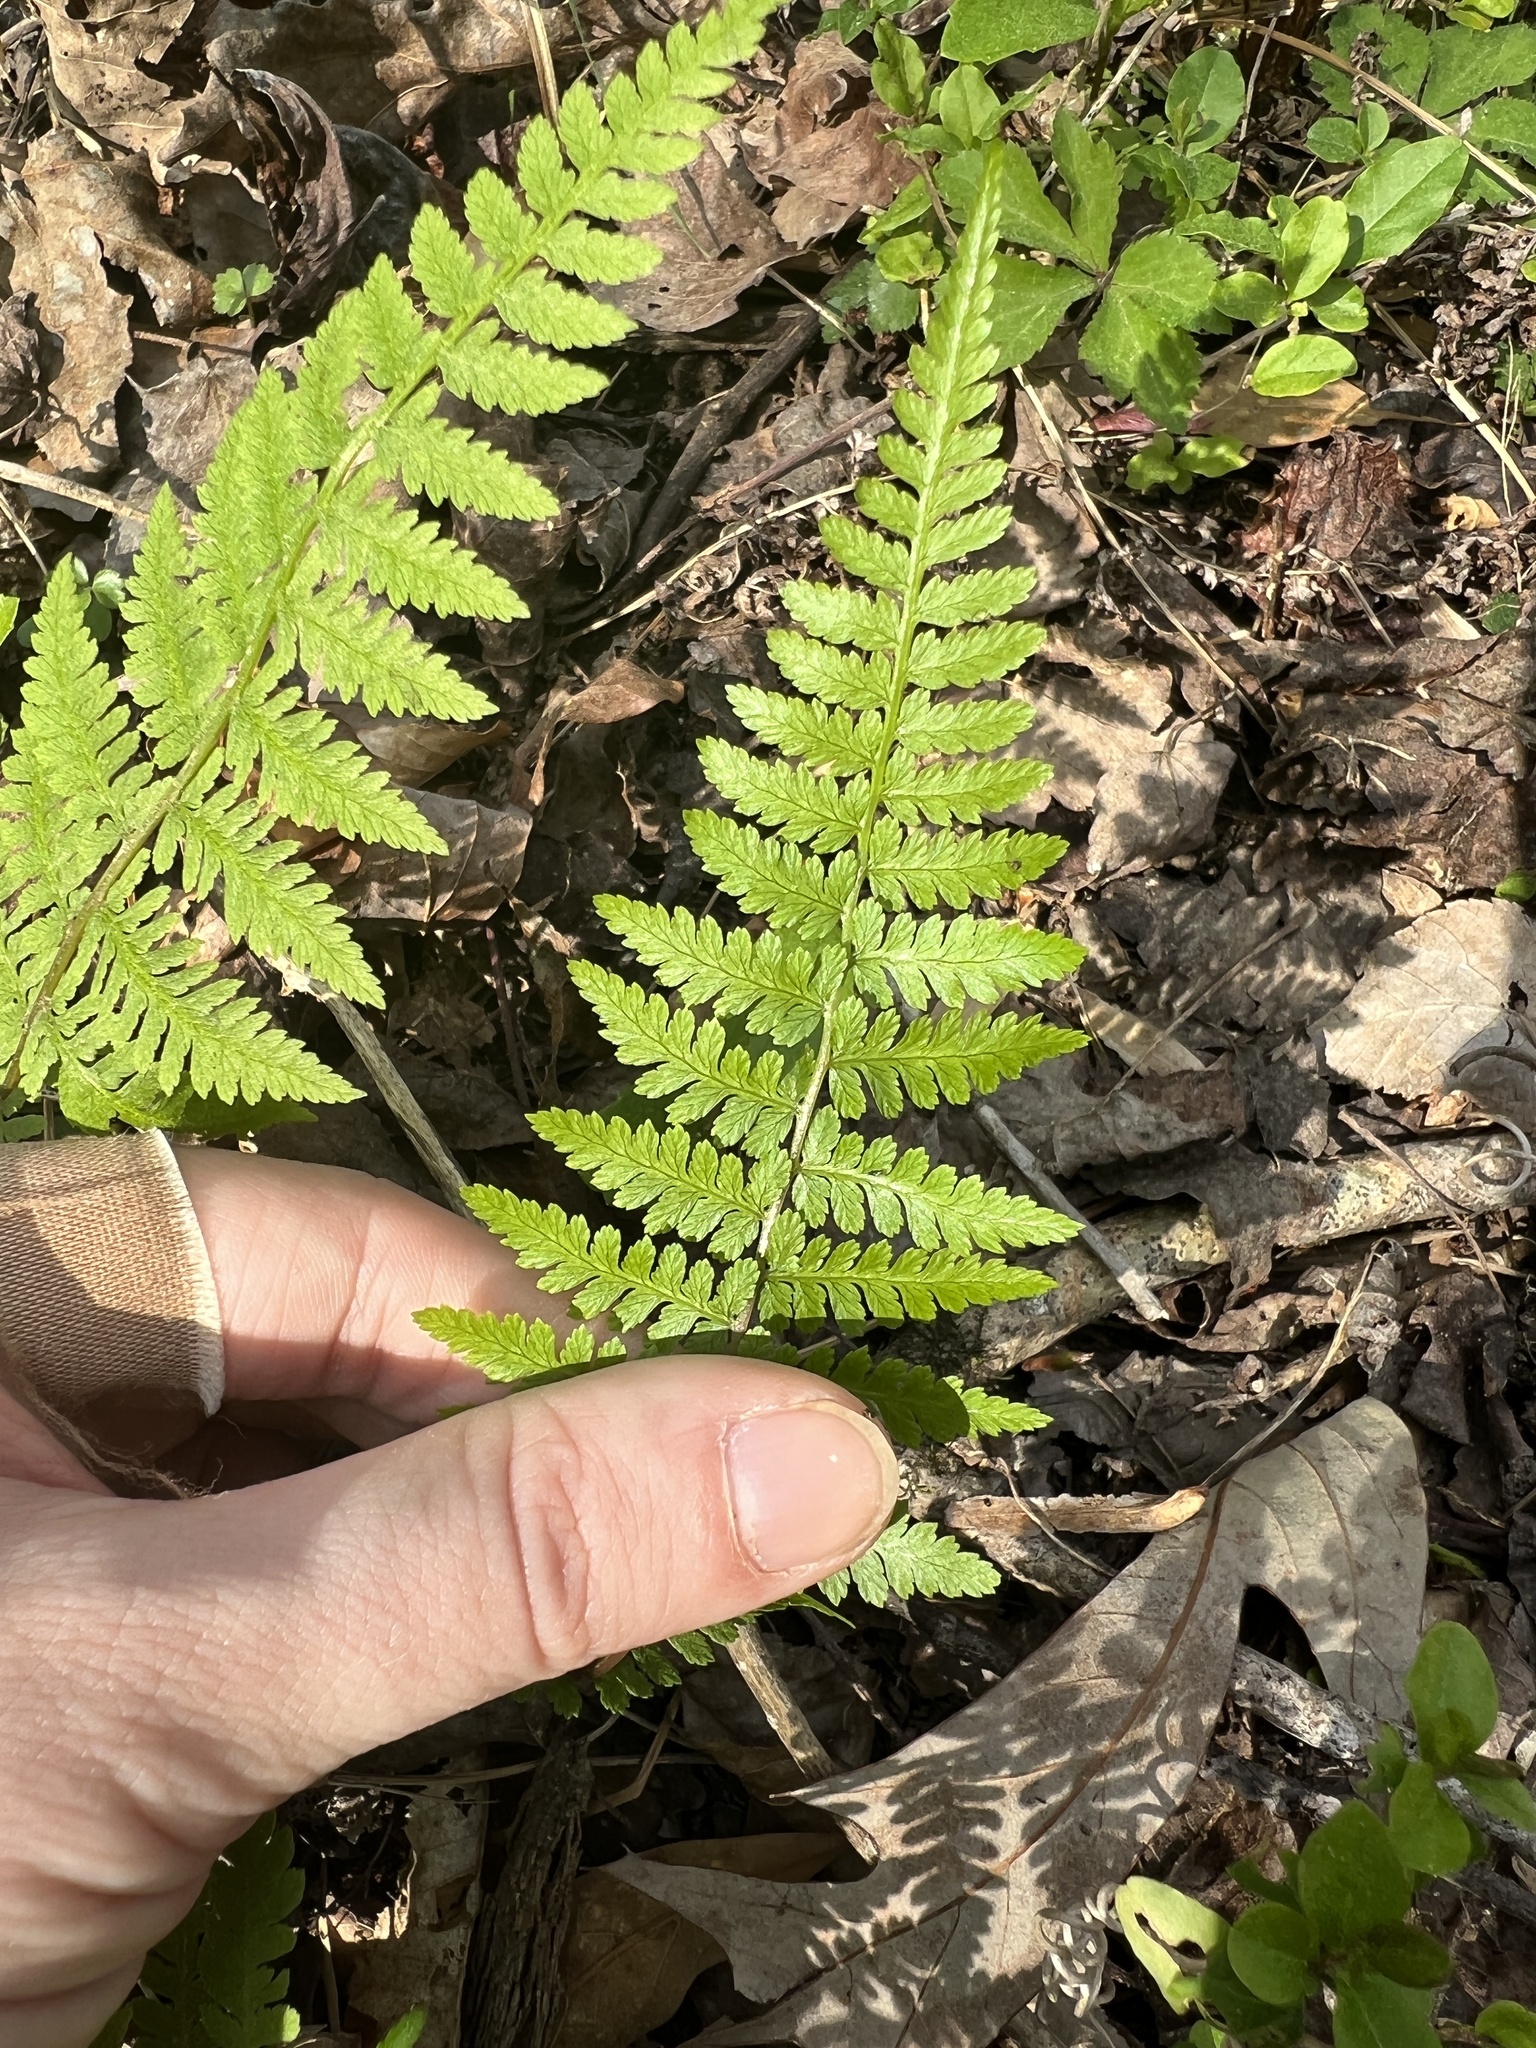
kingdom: Plantae
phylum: Tracheophyta
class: Polypodiopsida
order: Polypodiales
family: Athyriaceae
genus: Athyrium
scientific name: Athyrium asplenioides
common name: Southern lady fern
